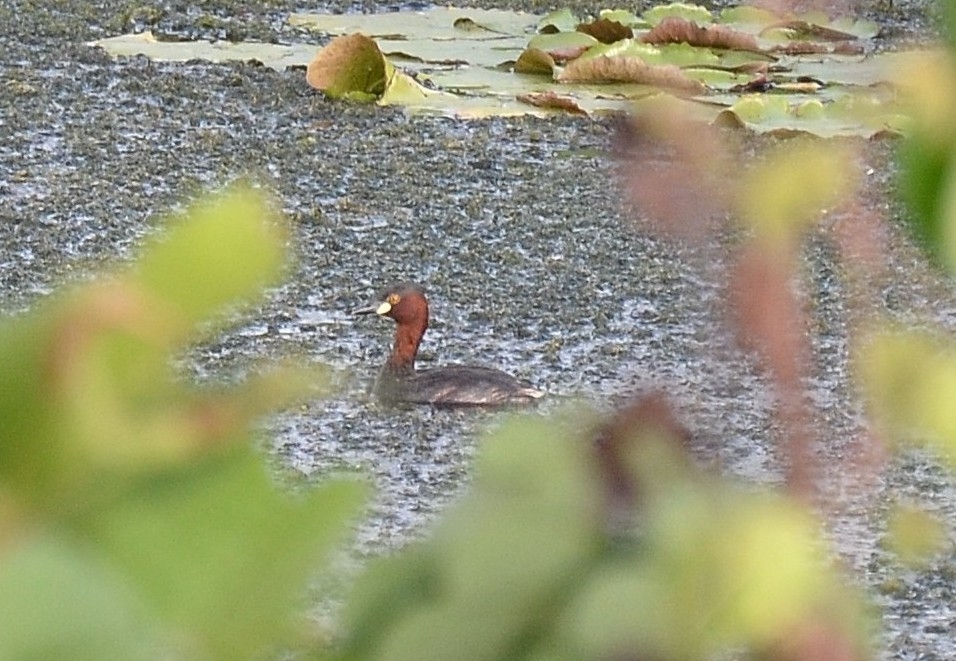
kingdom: Animalia
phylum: Chordata
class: Aves
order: Podicipediformes
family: Podicipedidae
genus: Tachybaptus
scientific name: Tachybaptus ruficollis
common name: Little grebe
